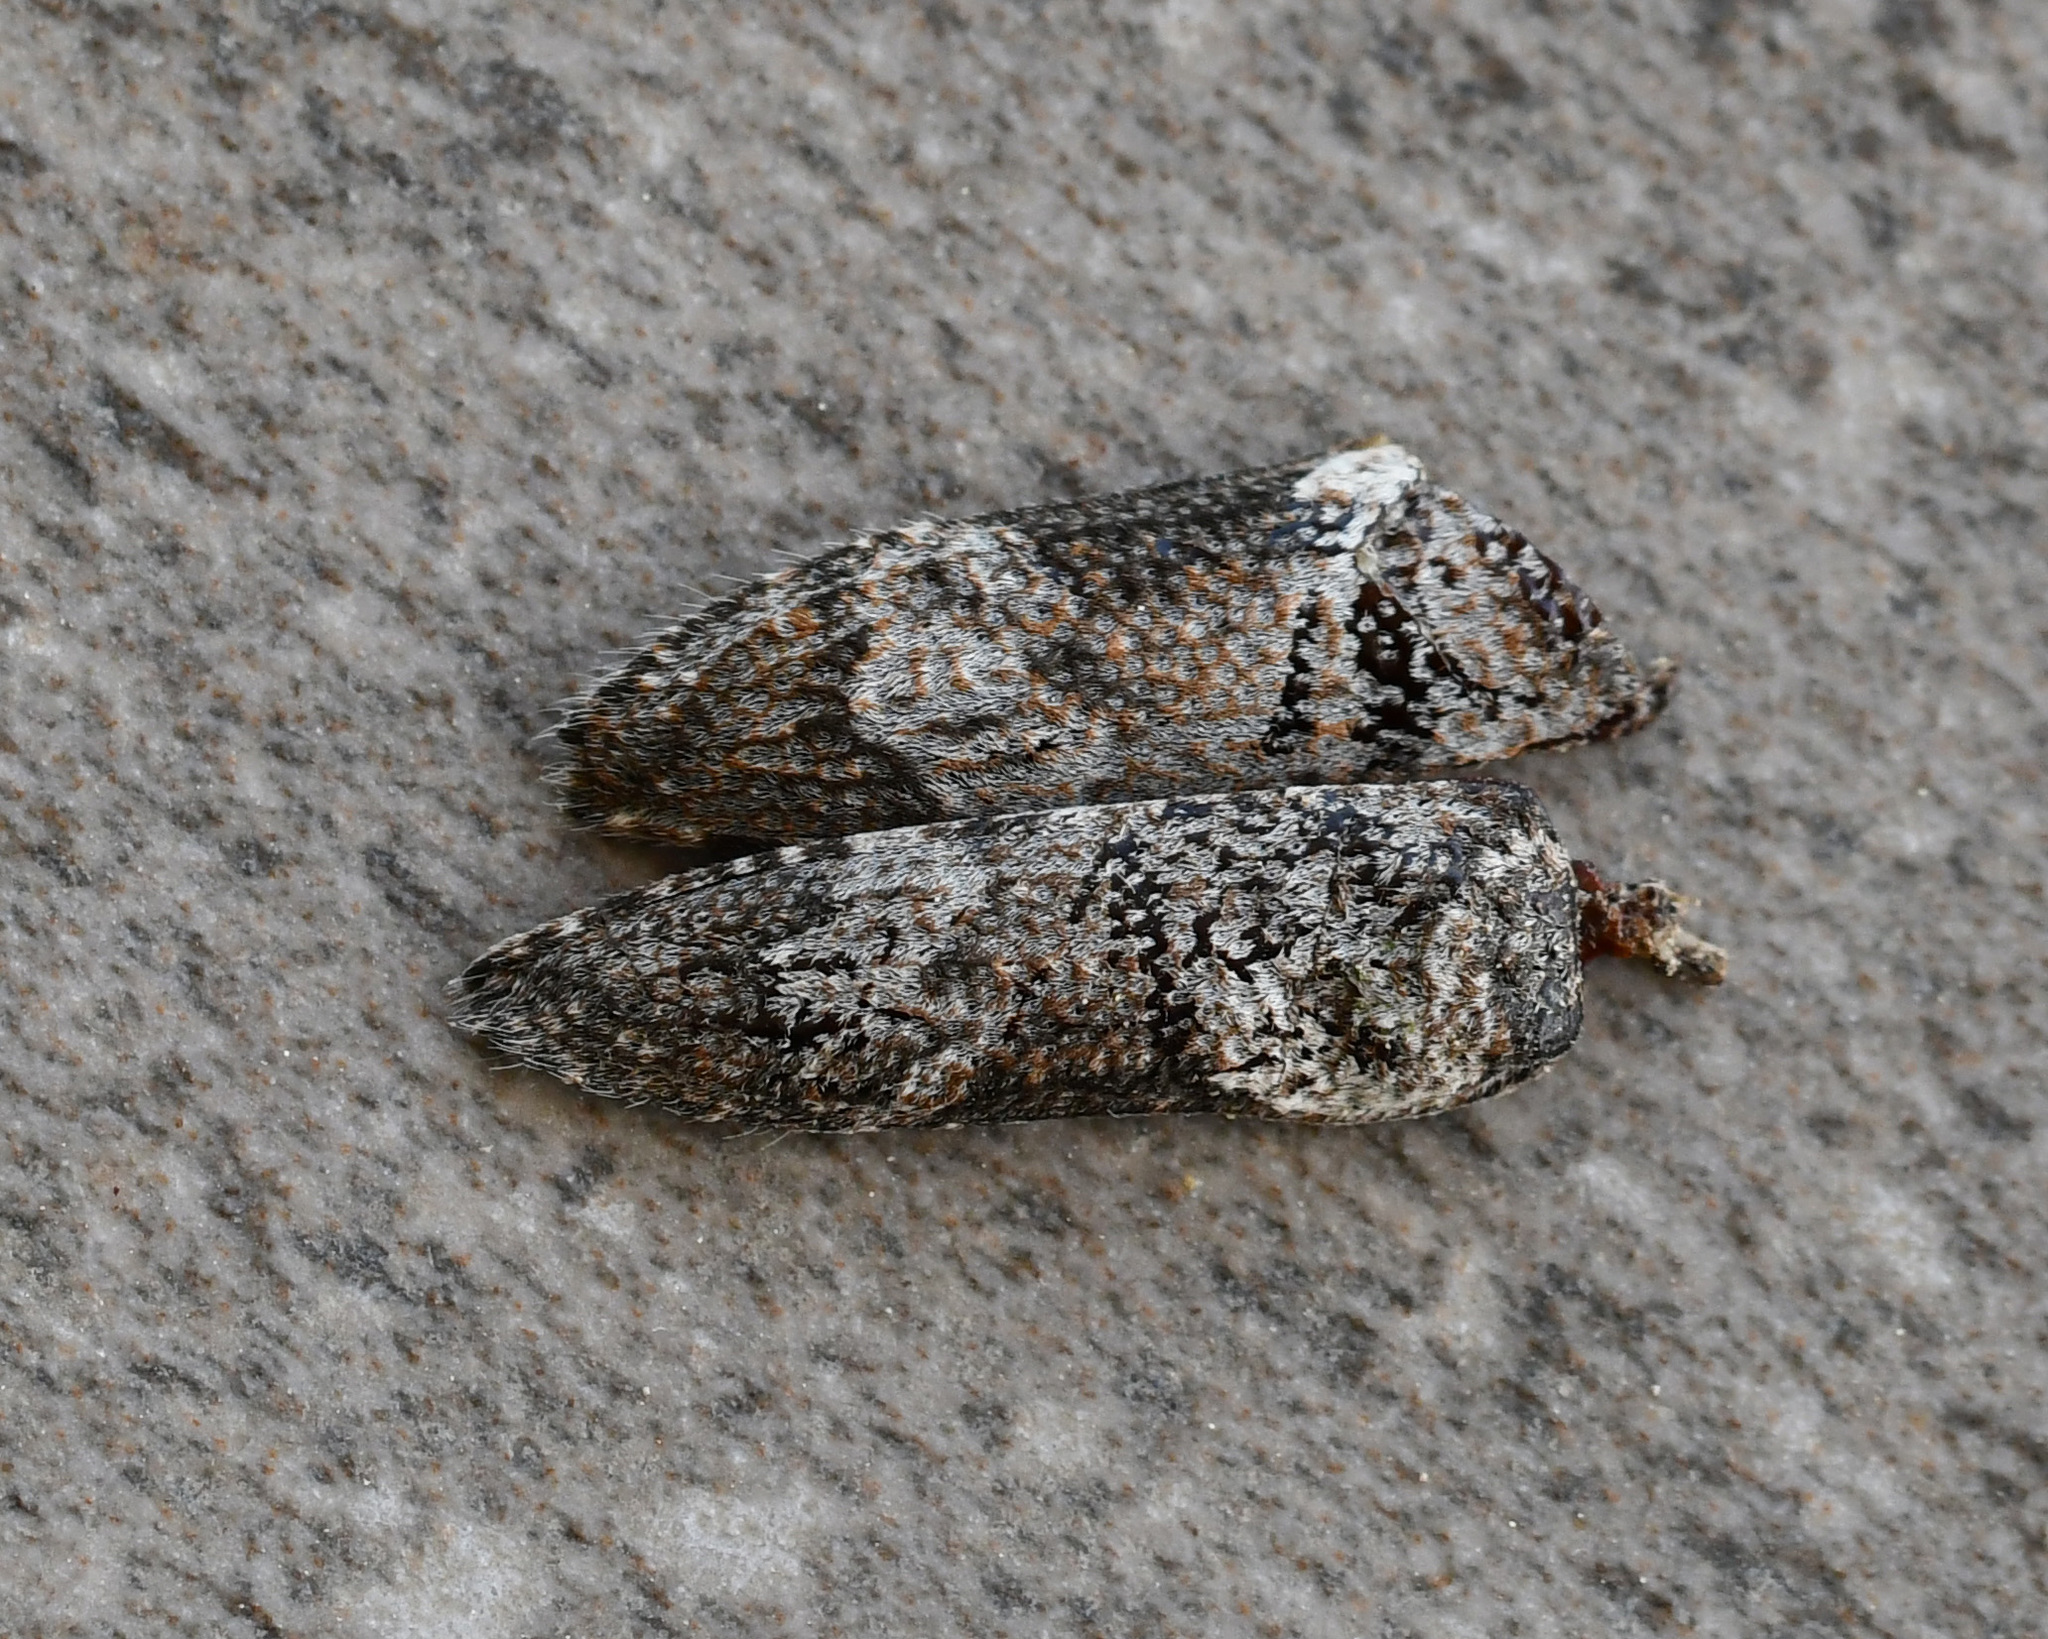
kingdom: Animalia
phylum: Arthropoda
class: Insecta
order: Coleoptera
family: Cerambycidae
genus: Niphona
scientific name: Niphona picticornis
